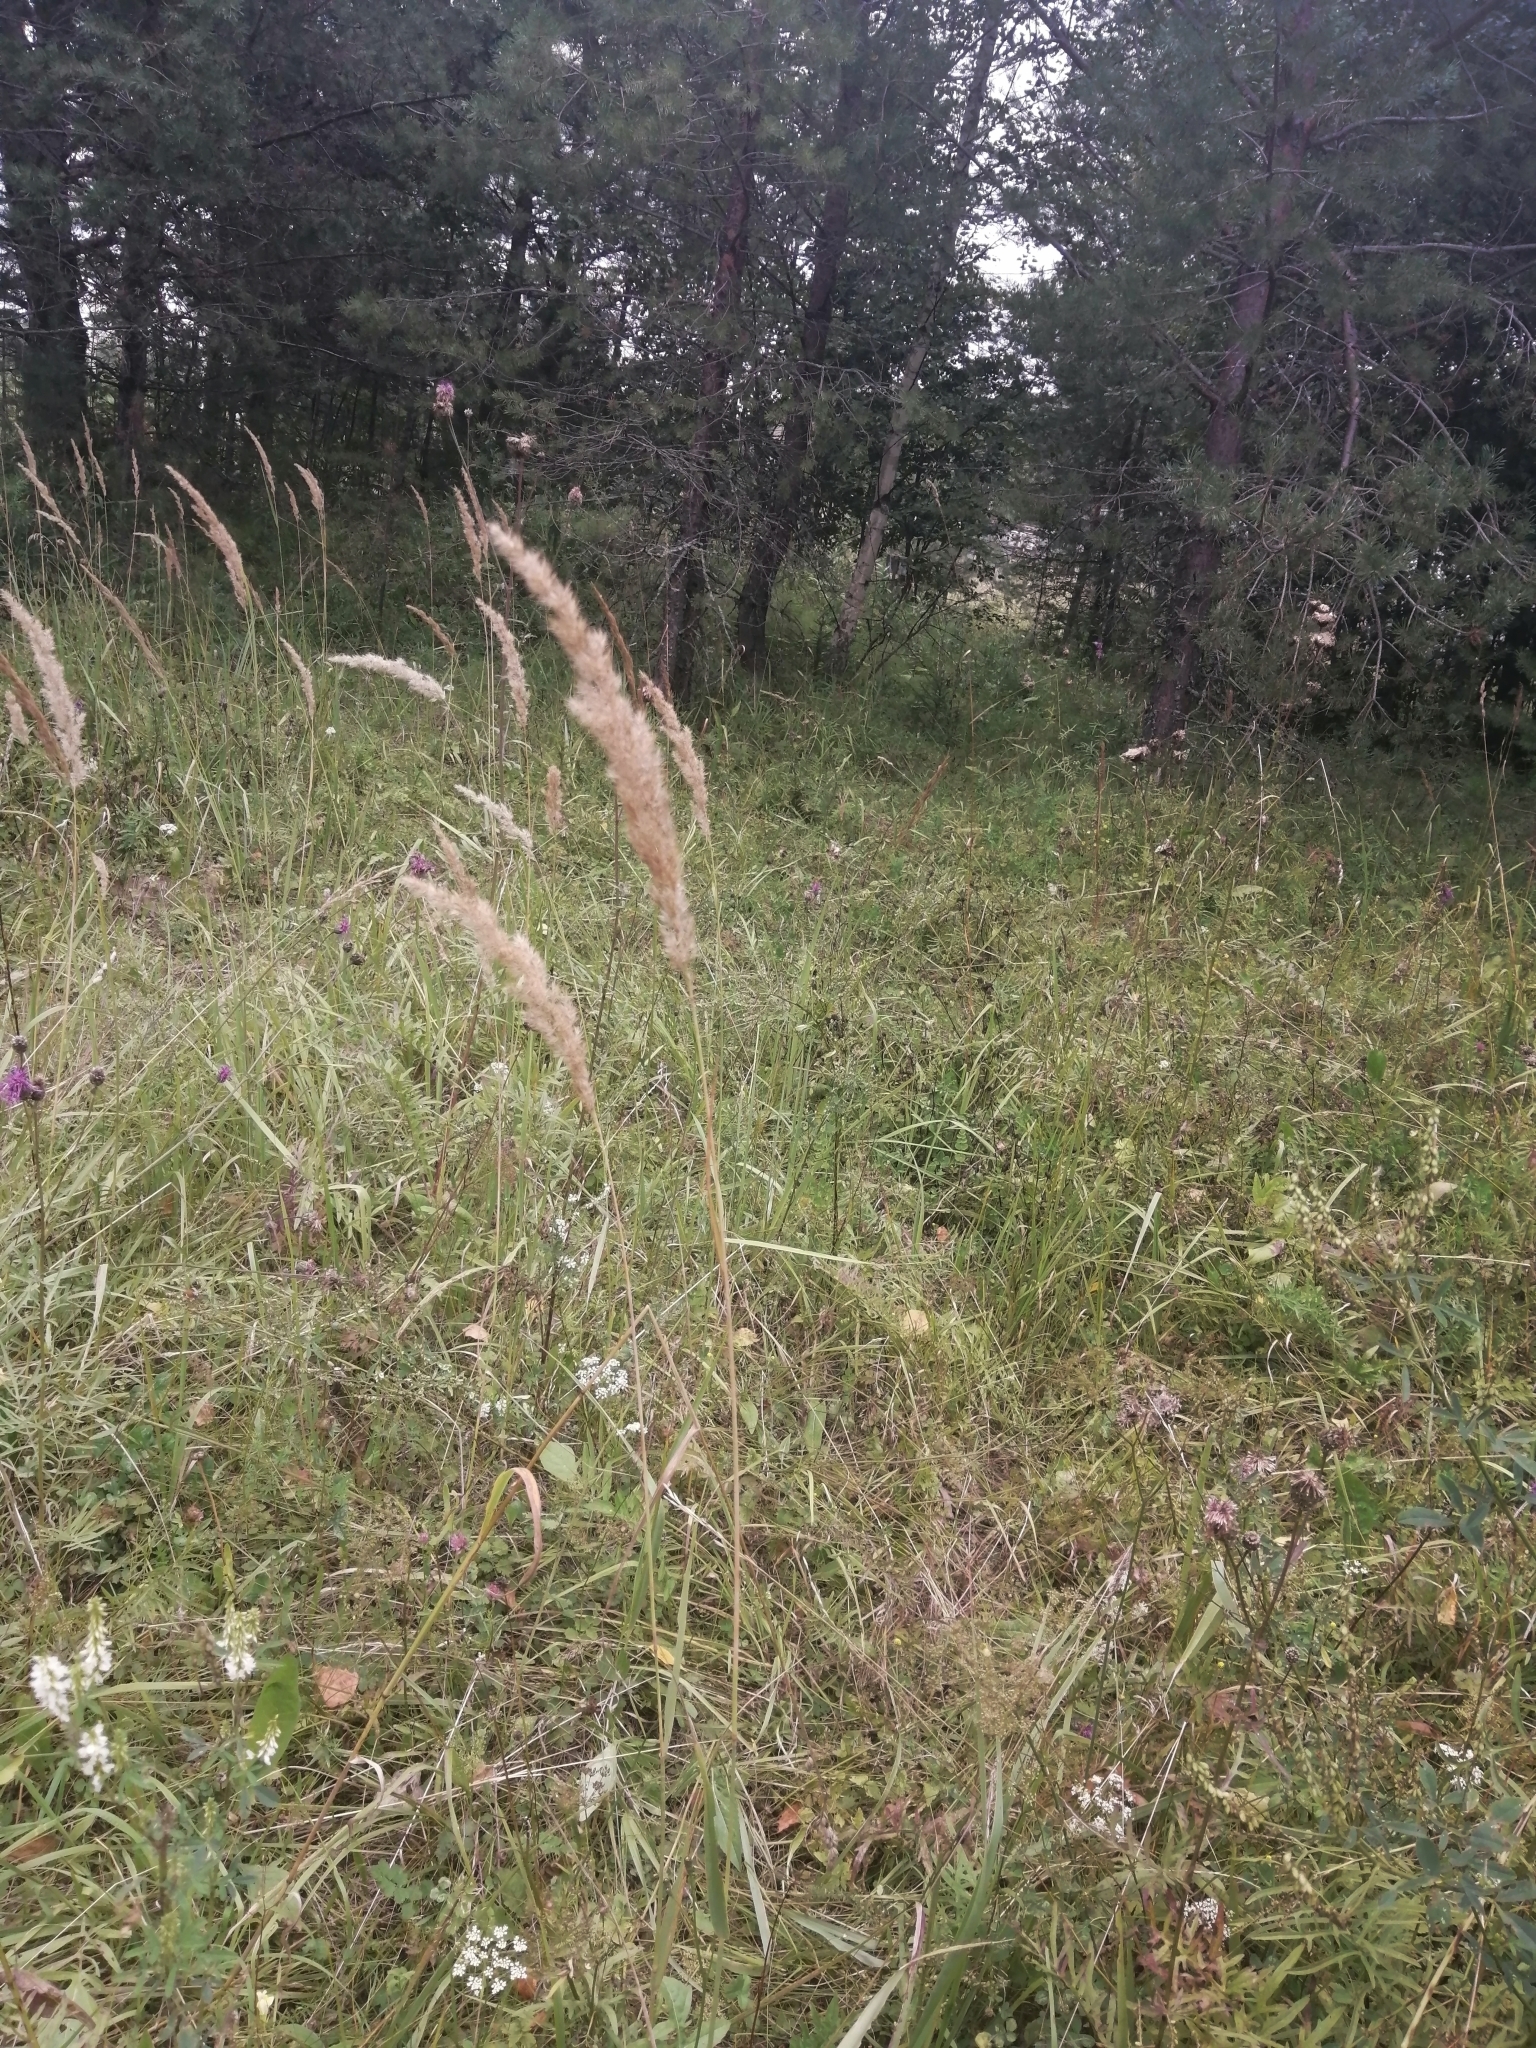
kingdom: Plantae
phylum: Tracheophyta
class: Liliopsida
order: Poales
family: Poaceae
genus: Calamagrostis
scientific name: Calamagrostis epigejos
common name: Wood small-reed
